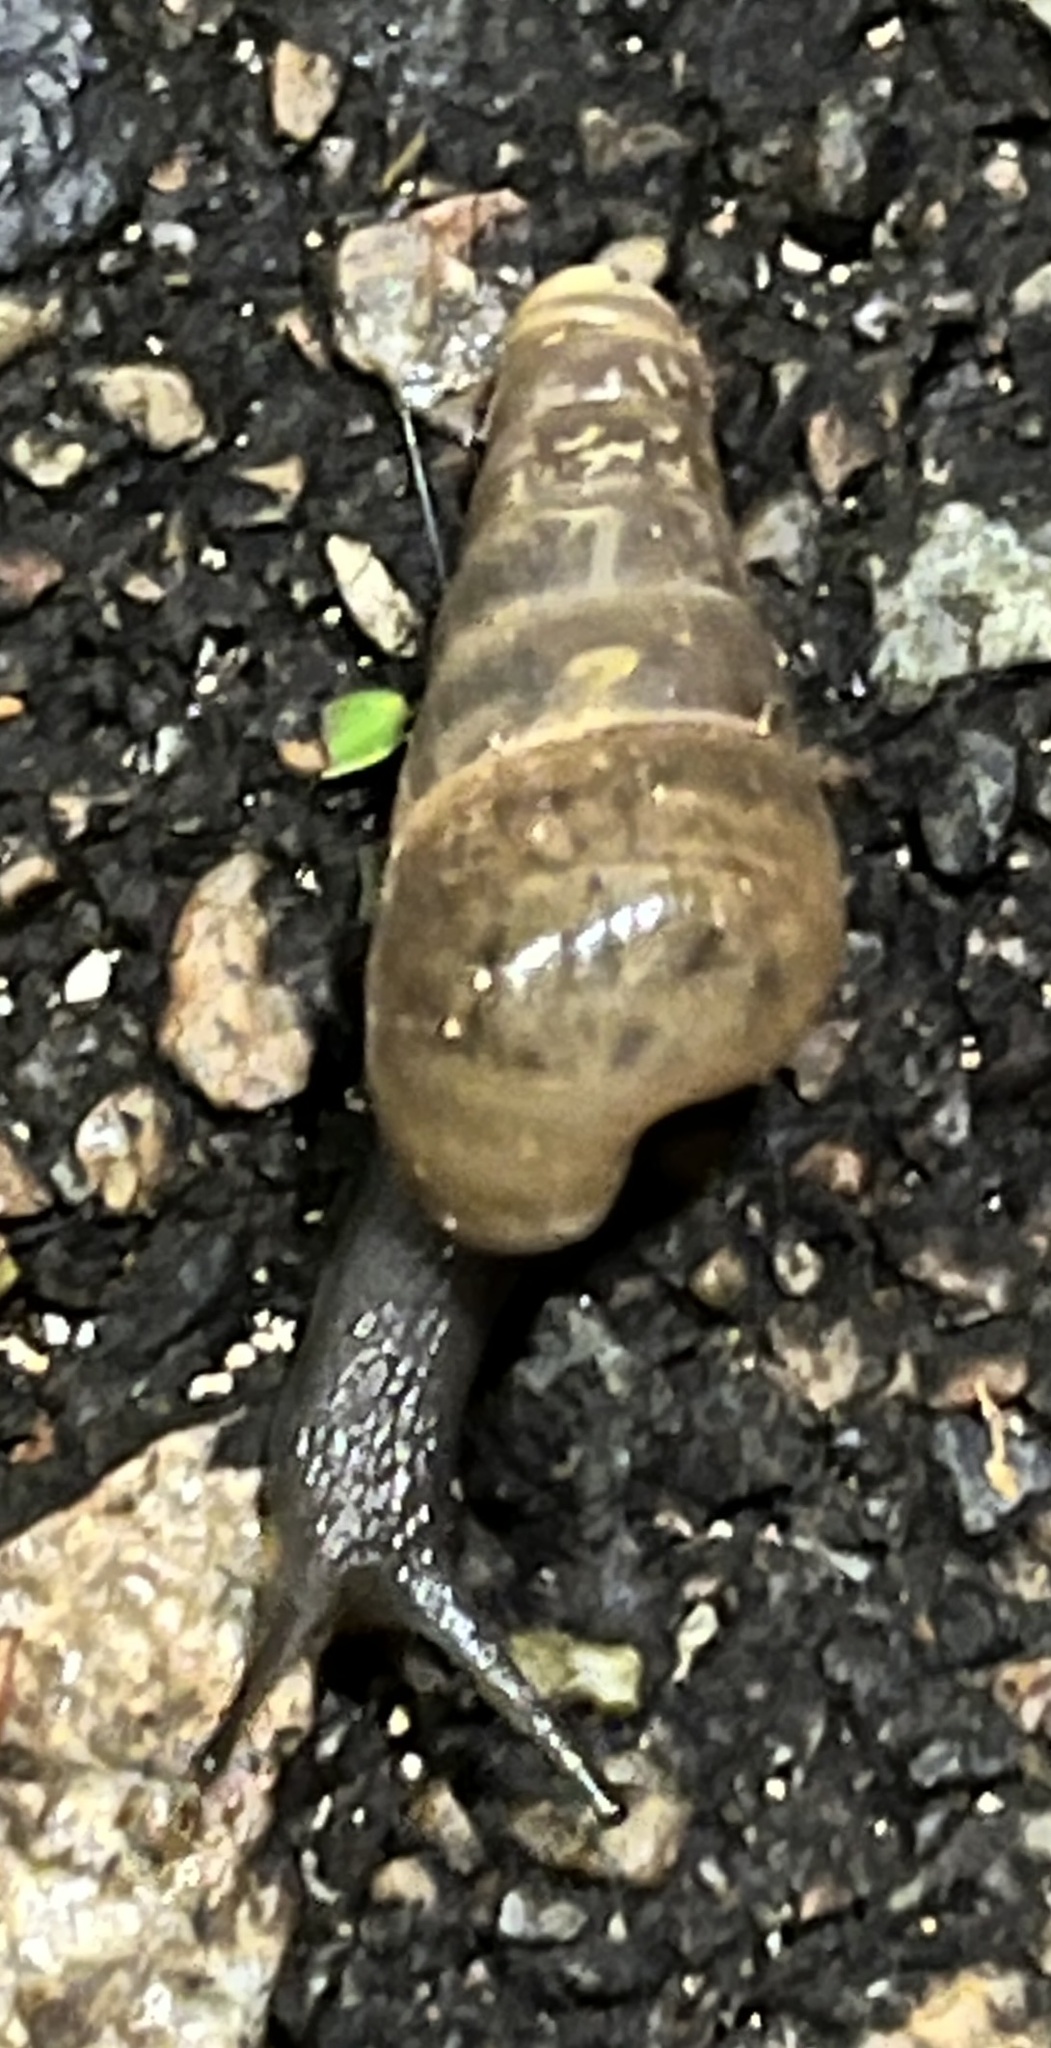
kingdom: Animalia
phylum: Mollusca
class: Gastropoda
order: Stylommatophora
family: Achatinidae
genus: Rumina
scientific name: Rumina decollata
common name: Decollate snail
